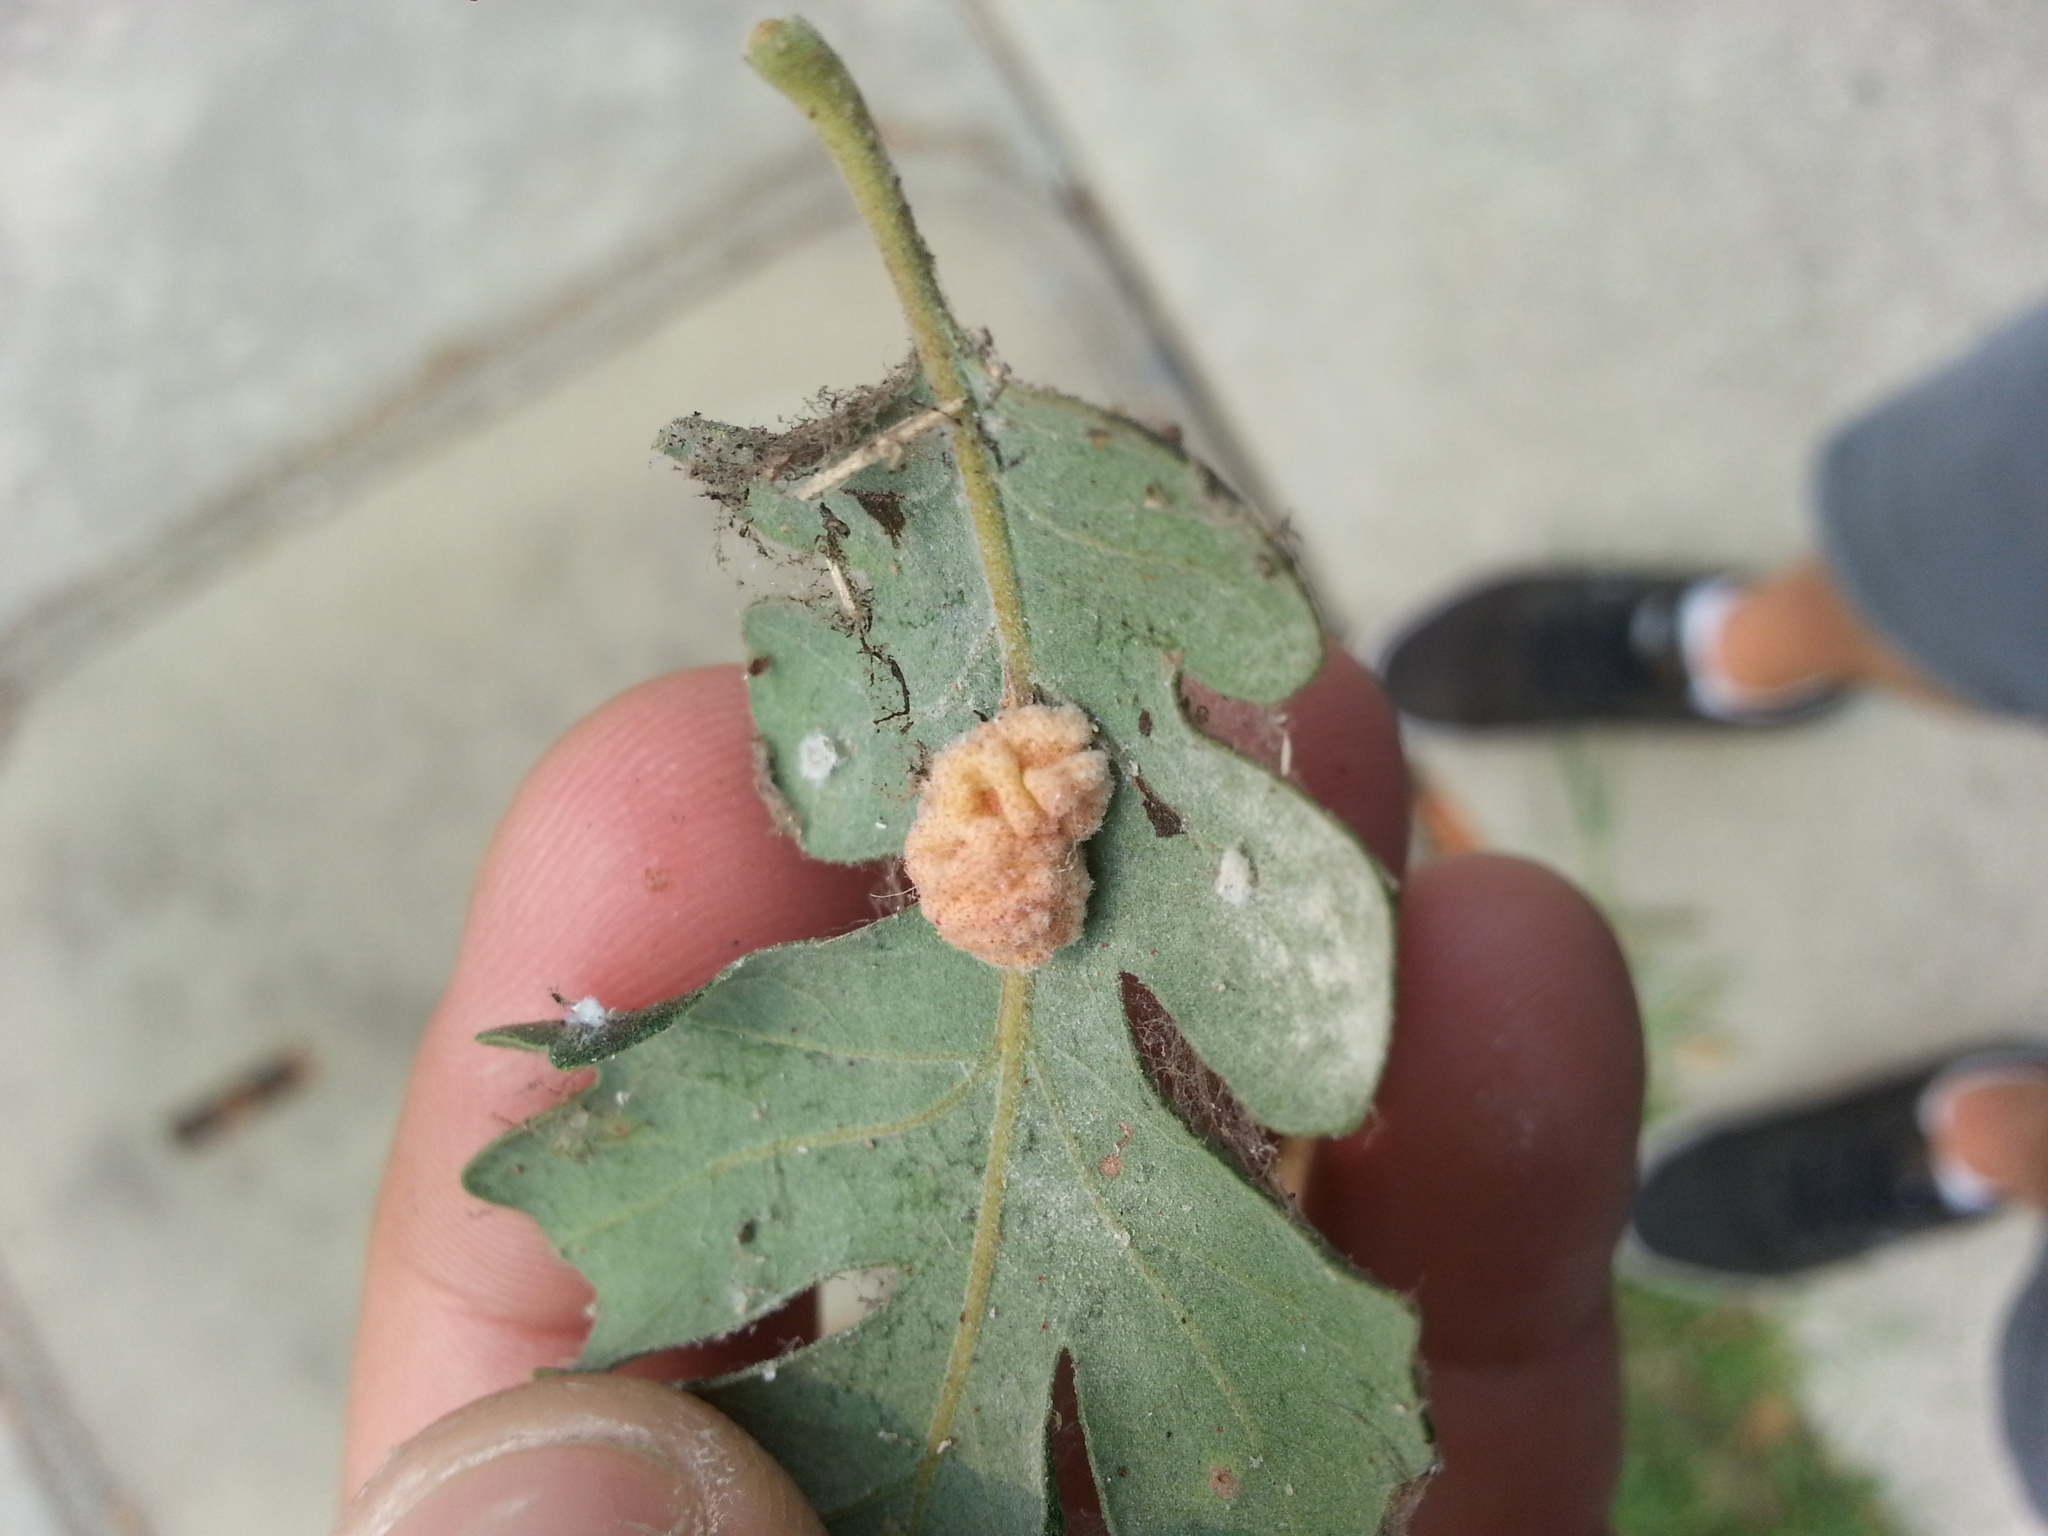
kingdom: Animalia
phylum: Arthropoda
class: Insecta
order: Hymenoptera
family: Cynipidae
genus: Andricus
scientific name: Andricus
